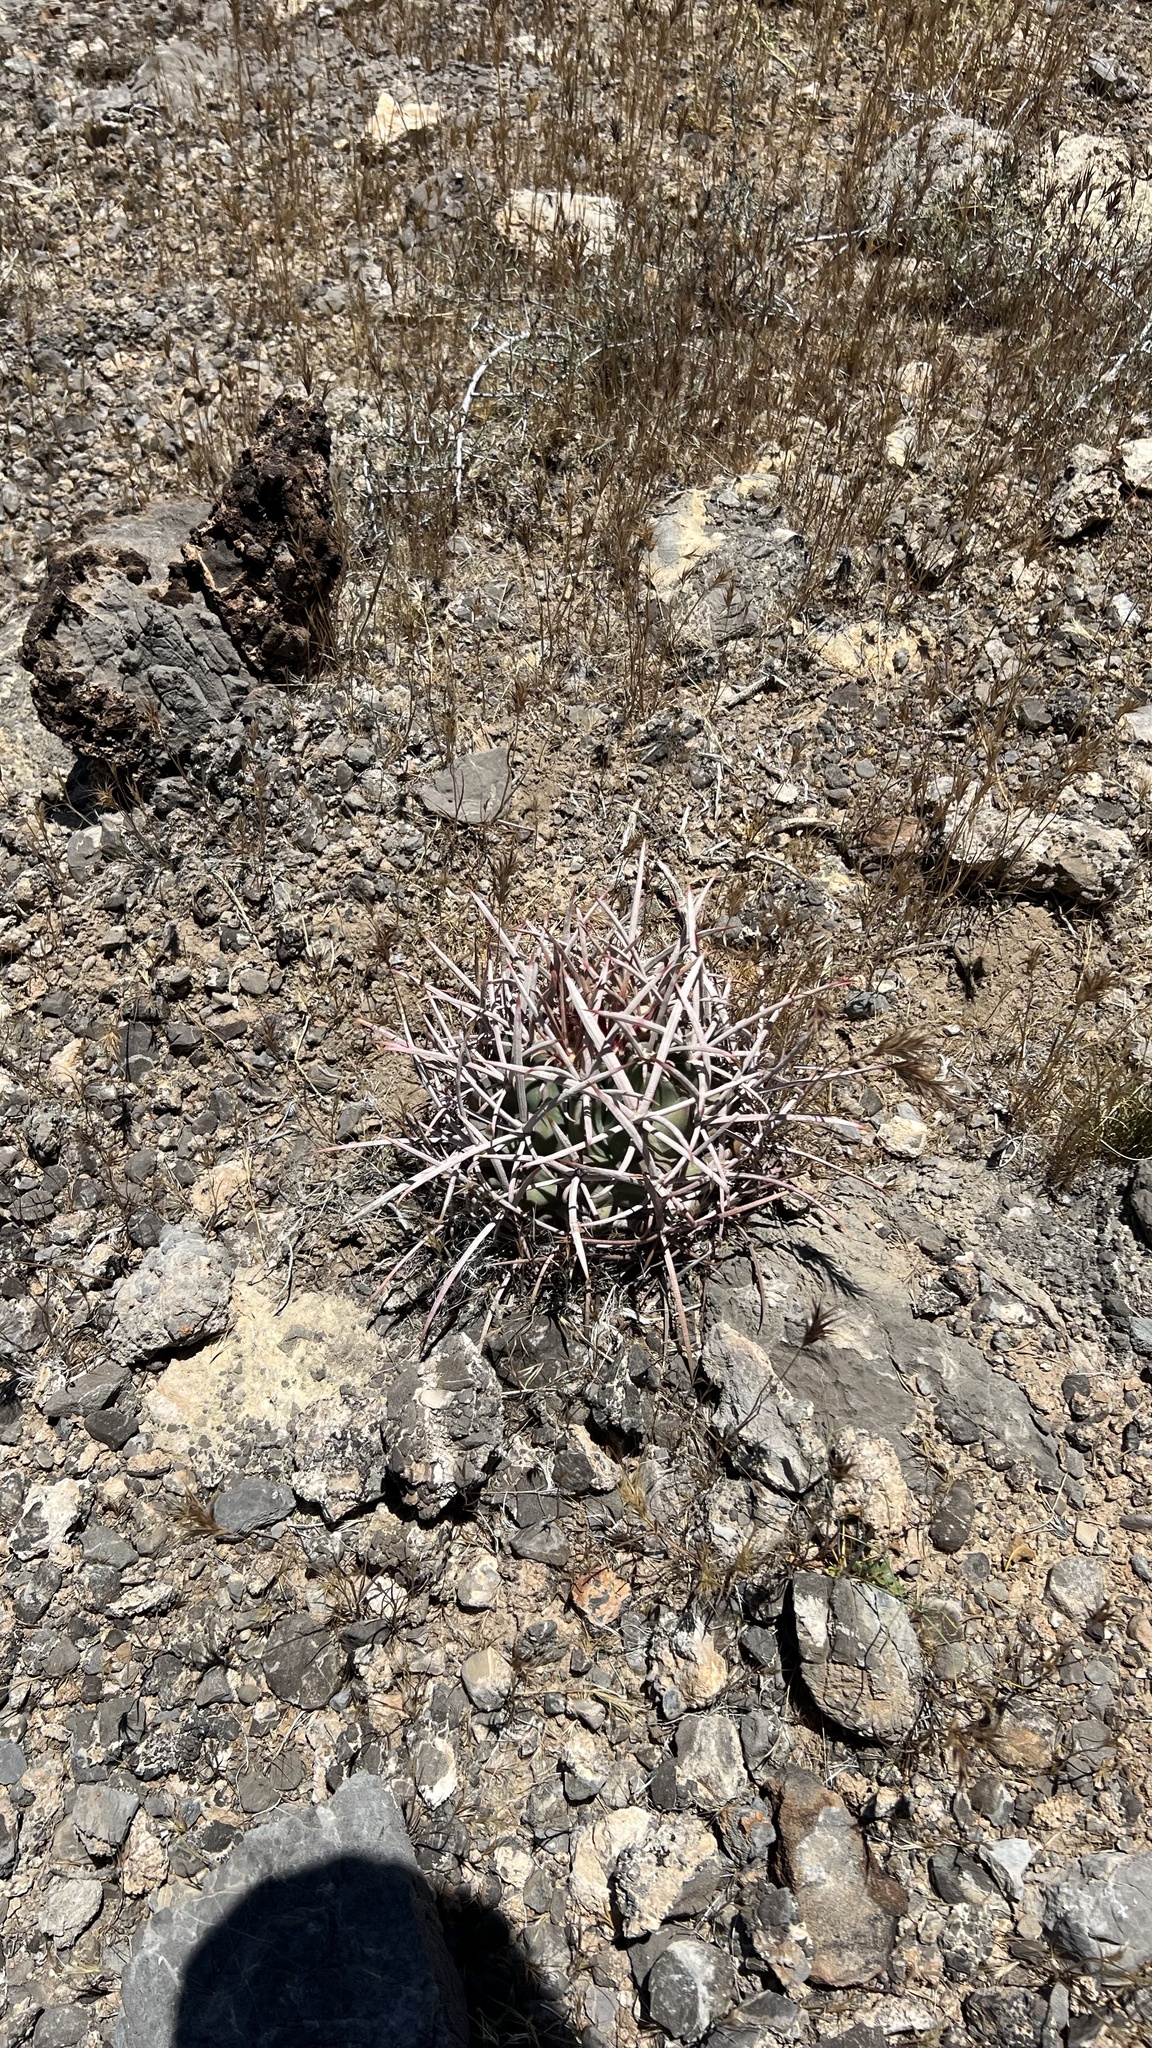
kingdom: Plantae
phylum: Tracheophyta
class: Magnoliopsida
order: Caryophyllales
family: Cactaceae
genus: Echinocactus
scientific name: Echinocactus polycephalus
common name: Cottontop cactus
